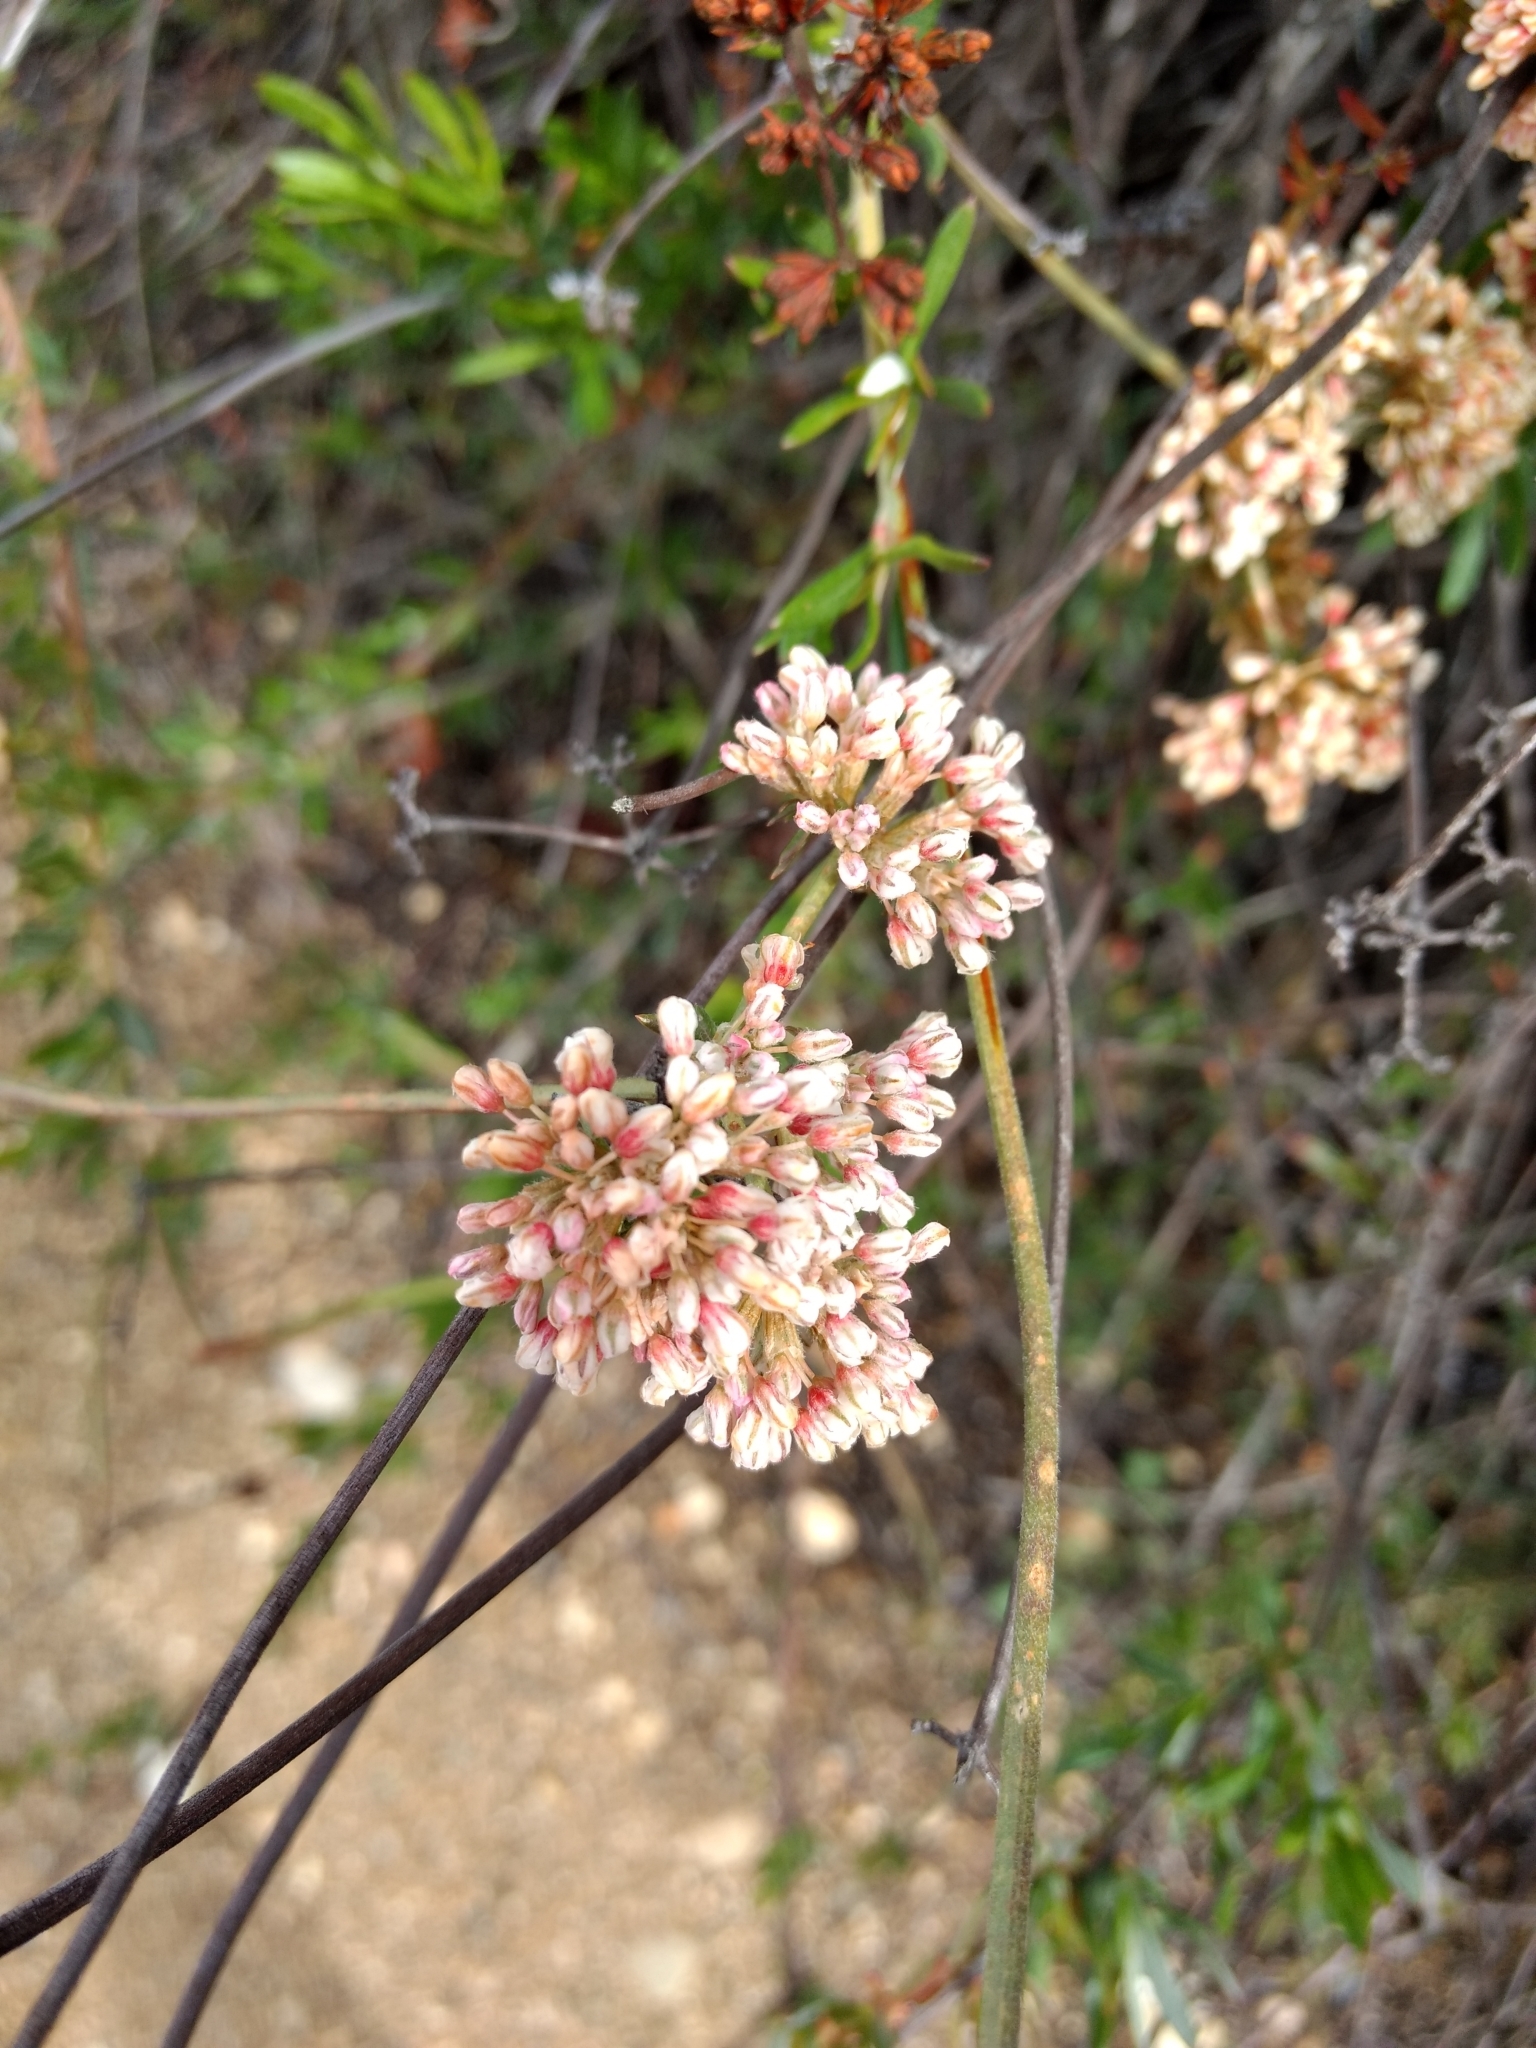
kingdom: Plantae
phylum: Tracheophyta
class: Magnoliopsida
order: Caryophyllales
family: Polygonaceae
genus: Eriogonum
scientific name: Eriogonum fasciculatum
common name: California wild buckwheat
